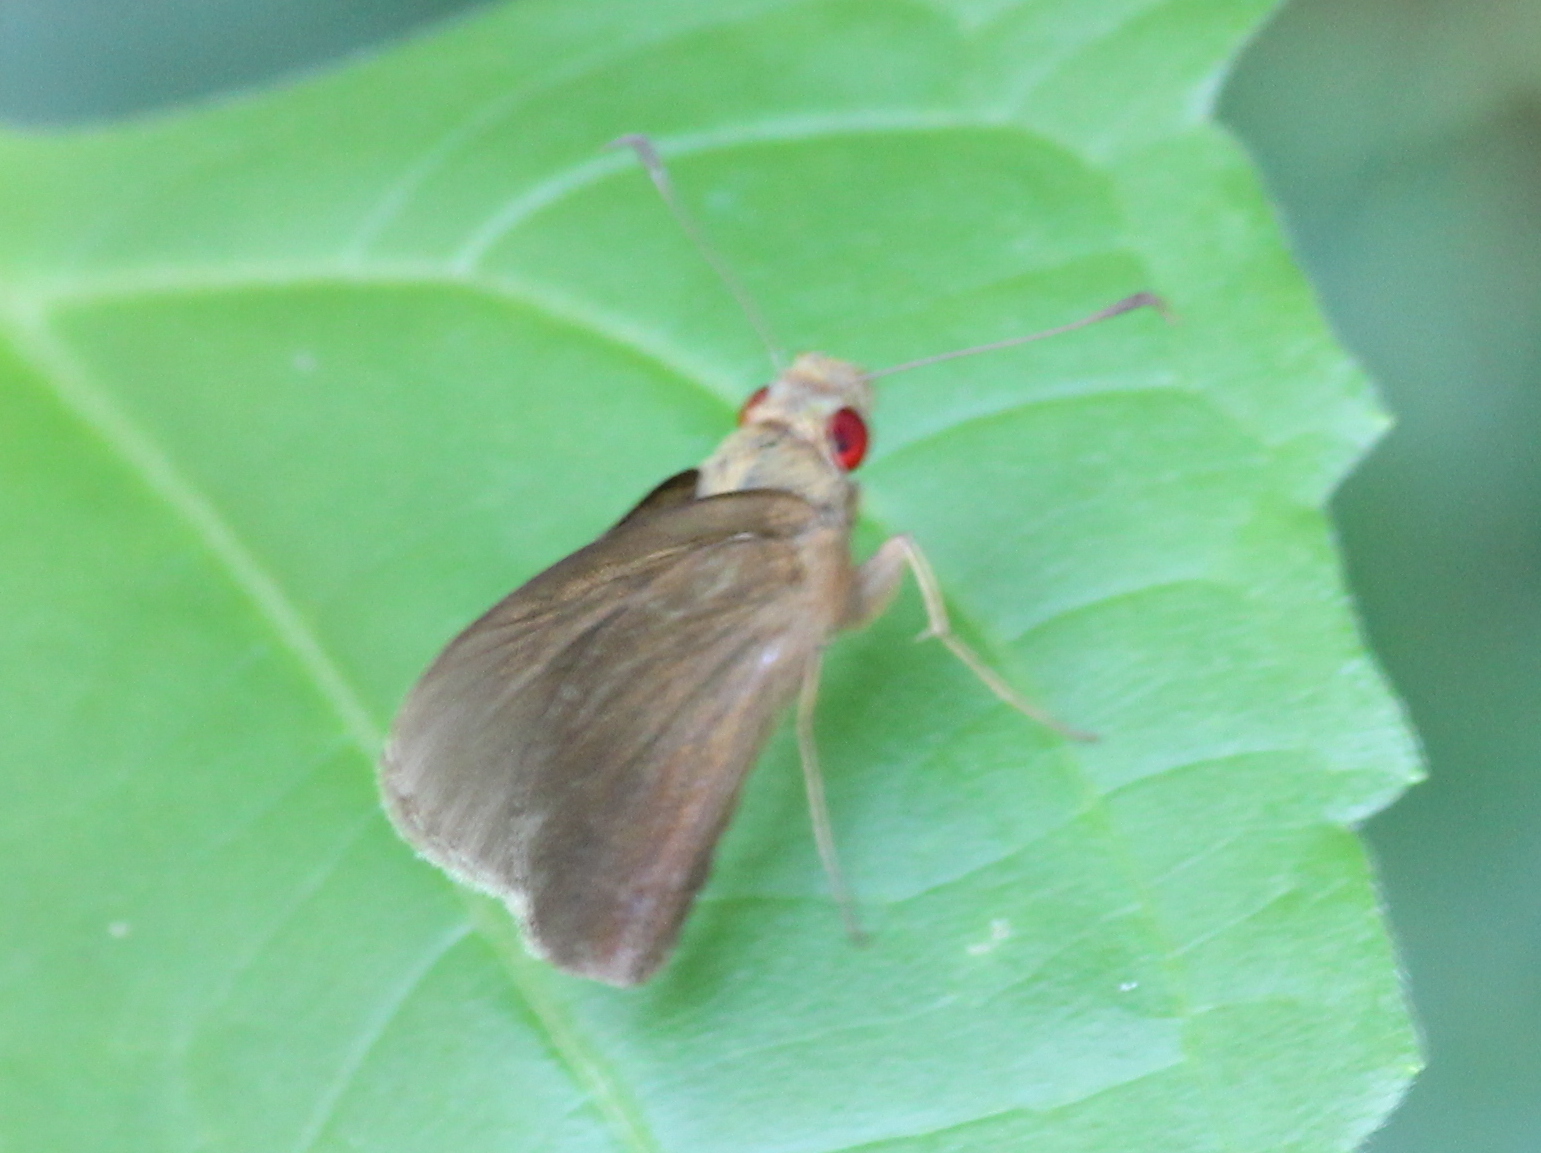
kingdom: Animalia
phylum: Arthropoda
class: Insecta
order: Lepidoptera
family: Hesperiidae
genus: Matapa
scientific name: Matapa aria
